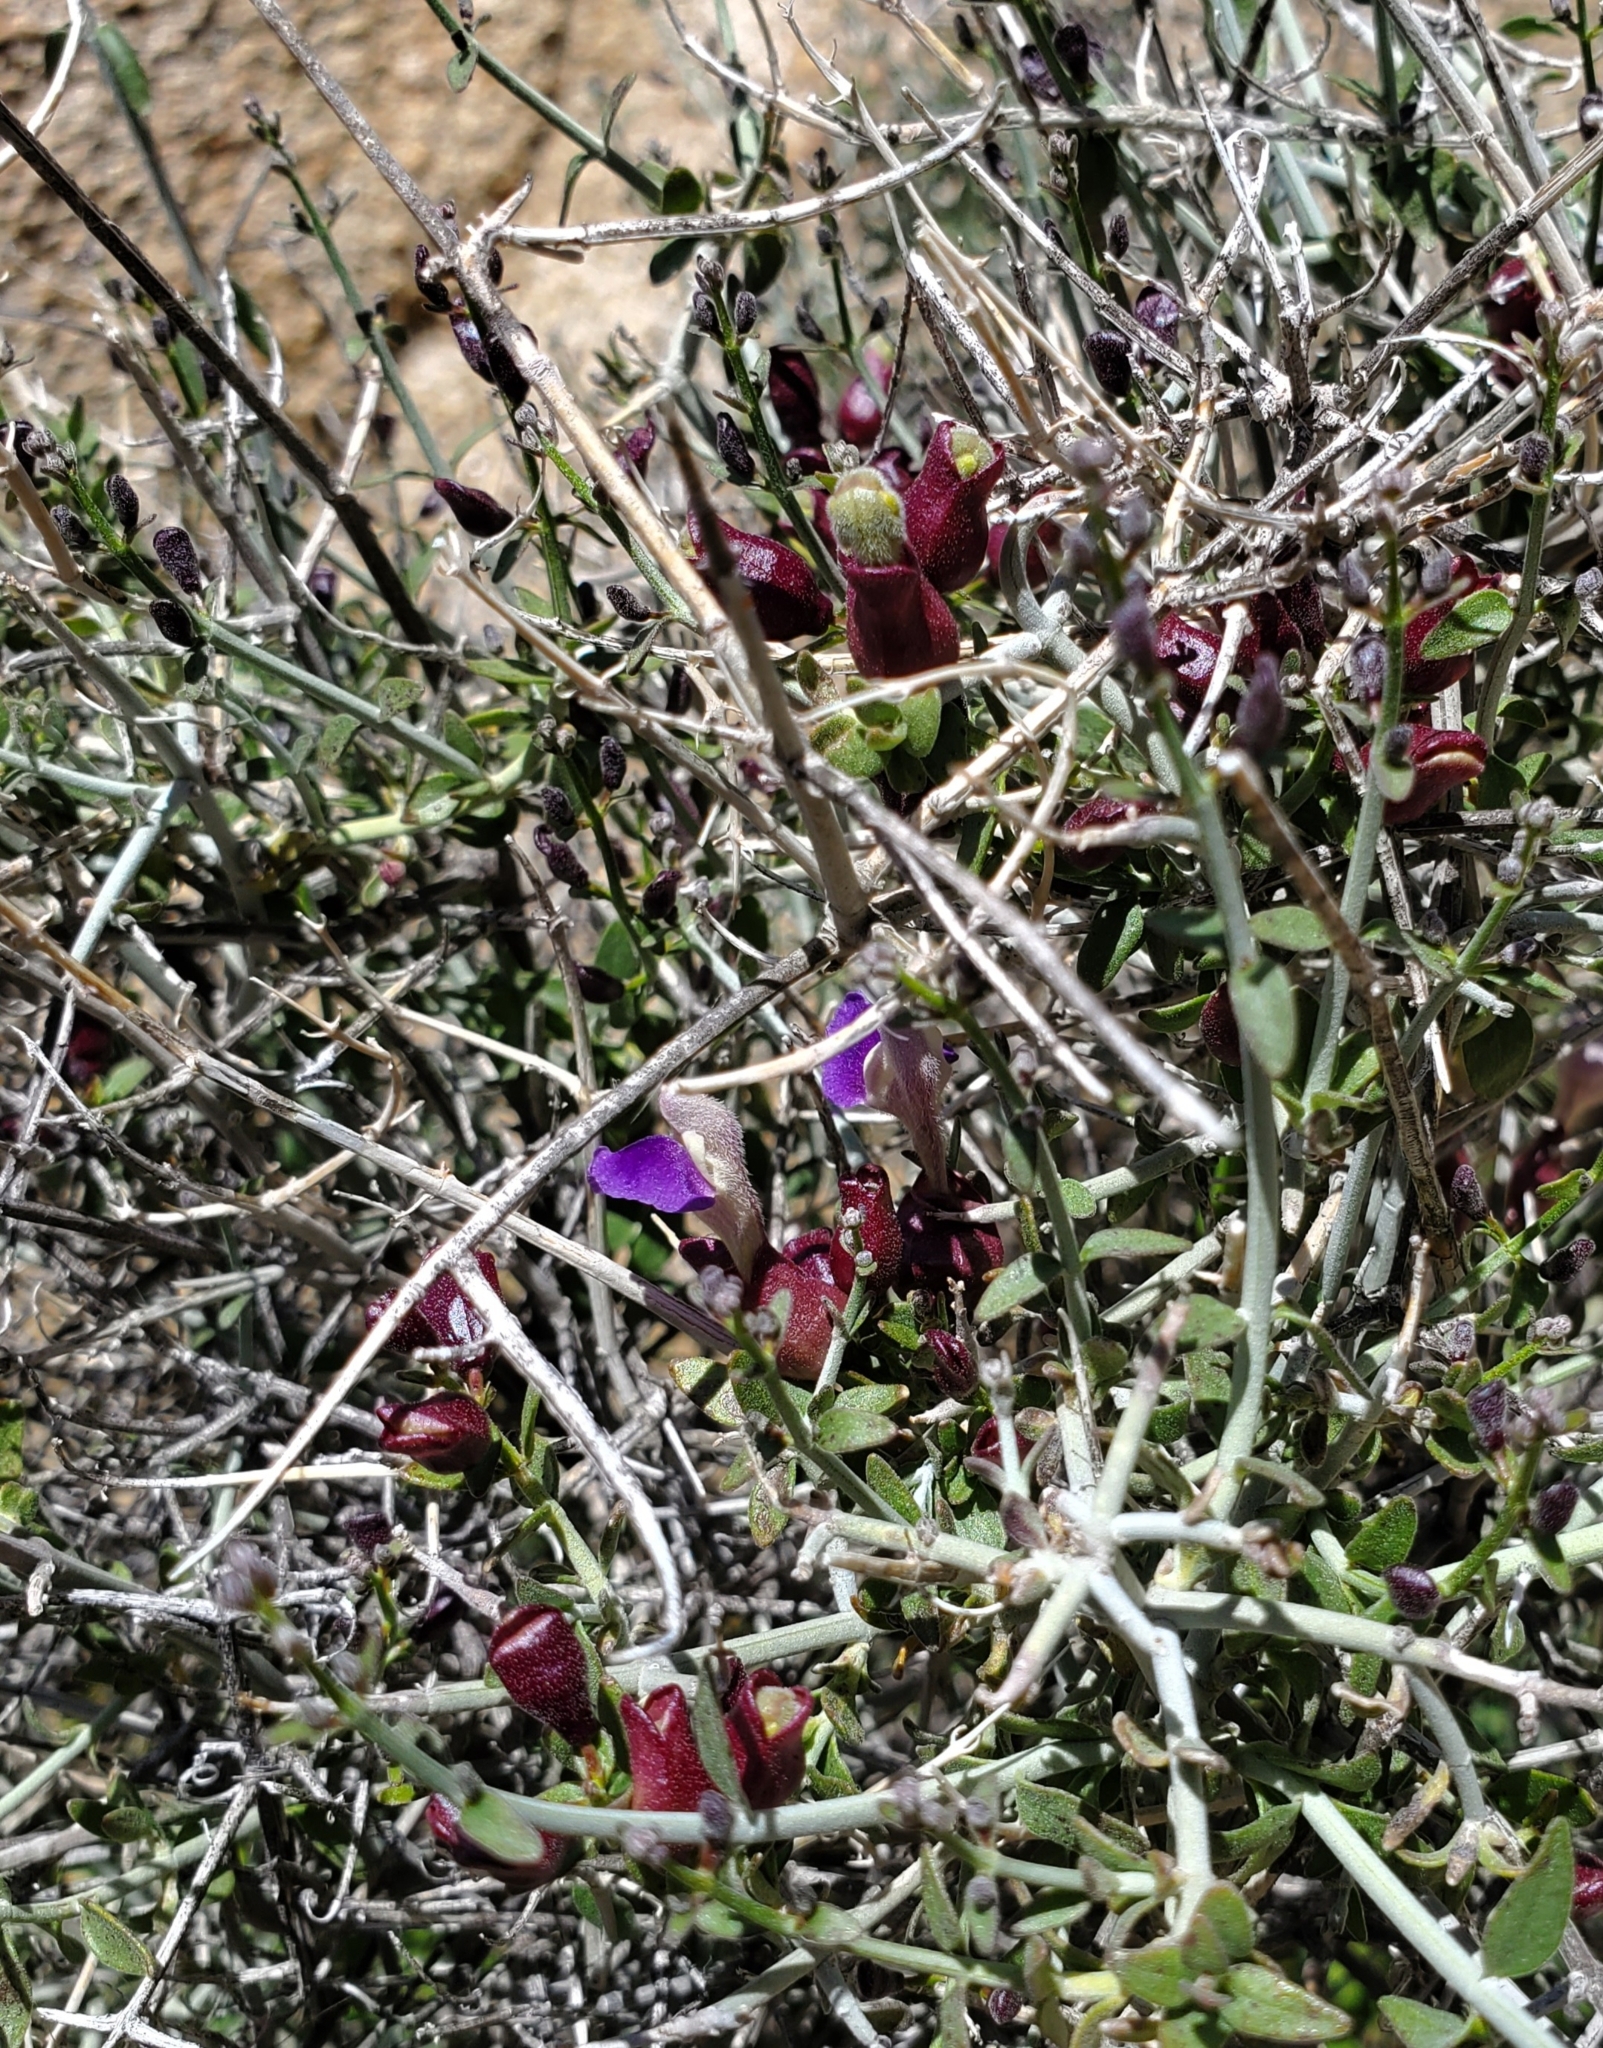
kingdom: Plantae
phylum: Tracheophyta
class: Magnoliopsida
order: Lamiales
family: Lamiaceae
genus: Scutellaria
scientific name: Scutellaria mexicana
